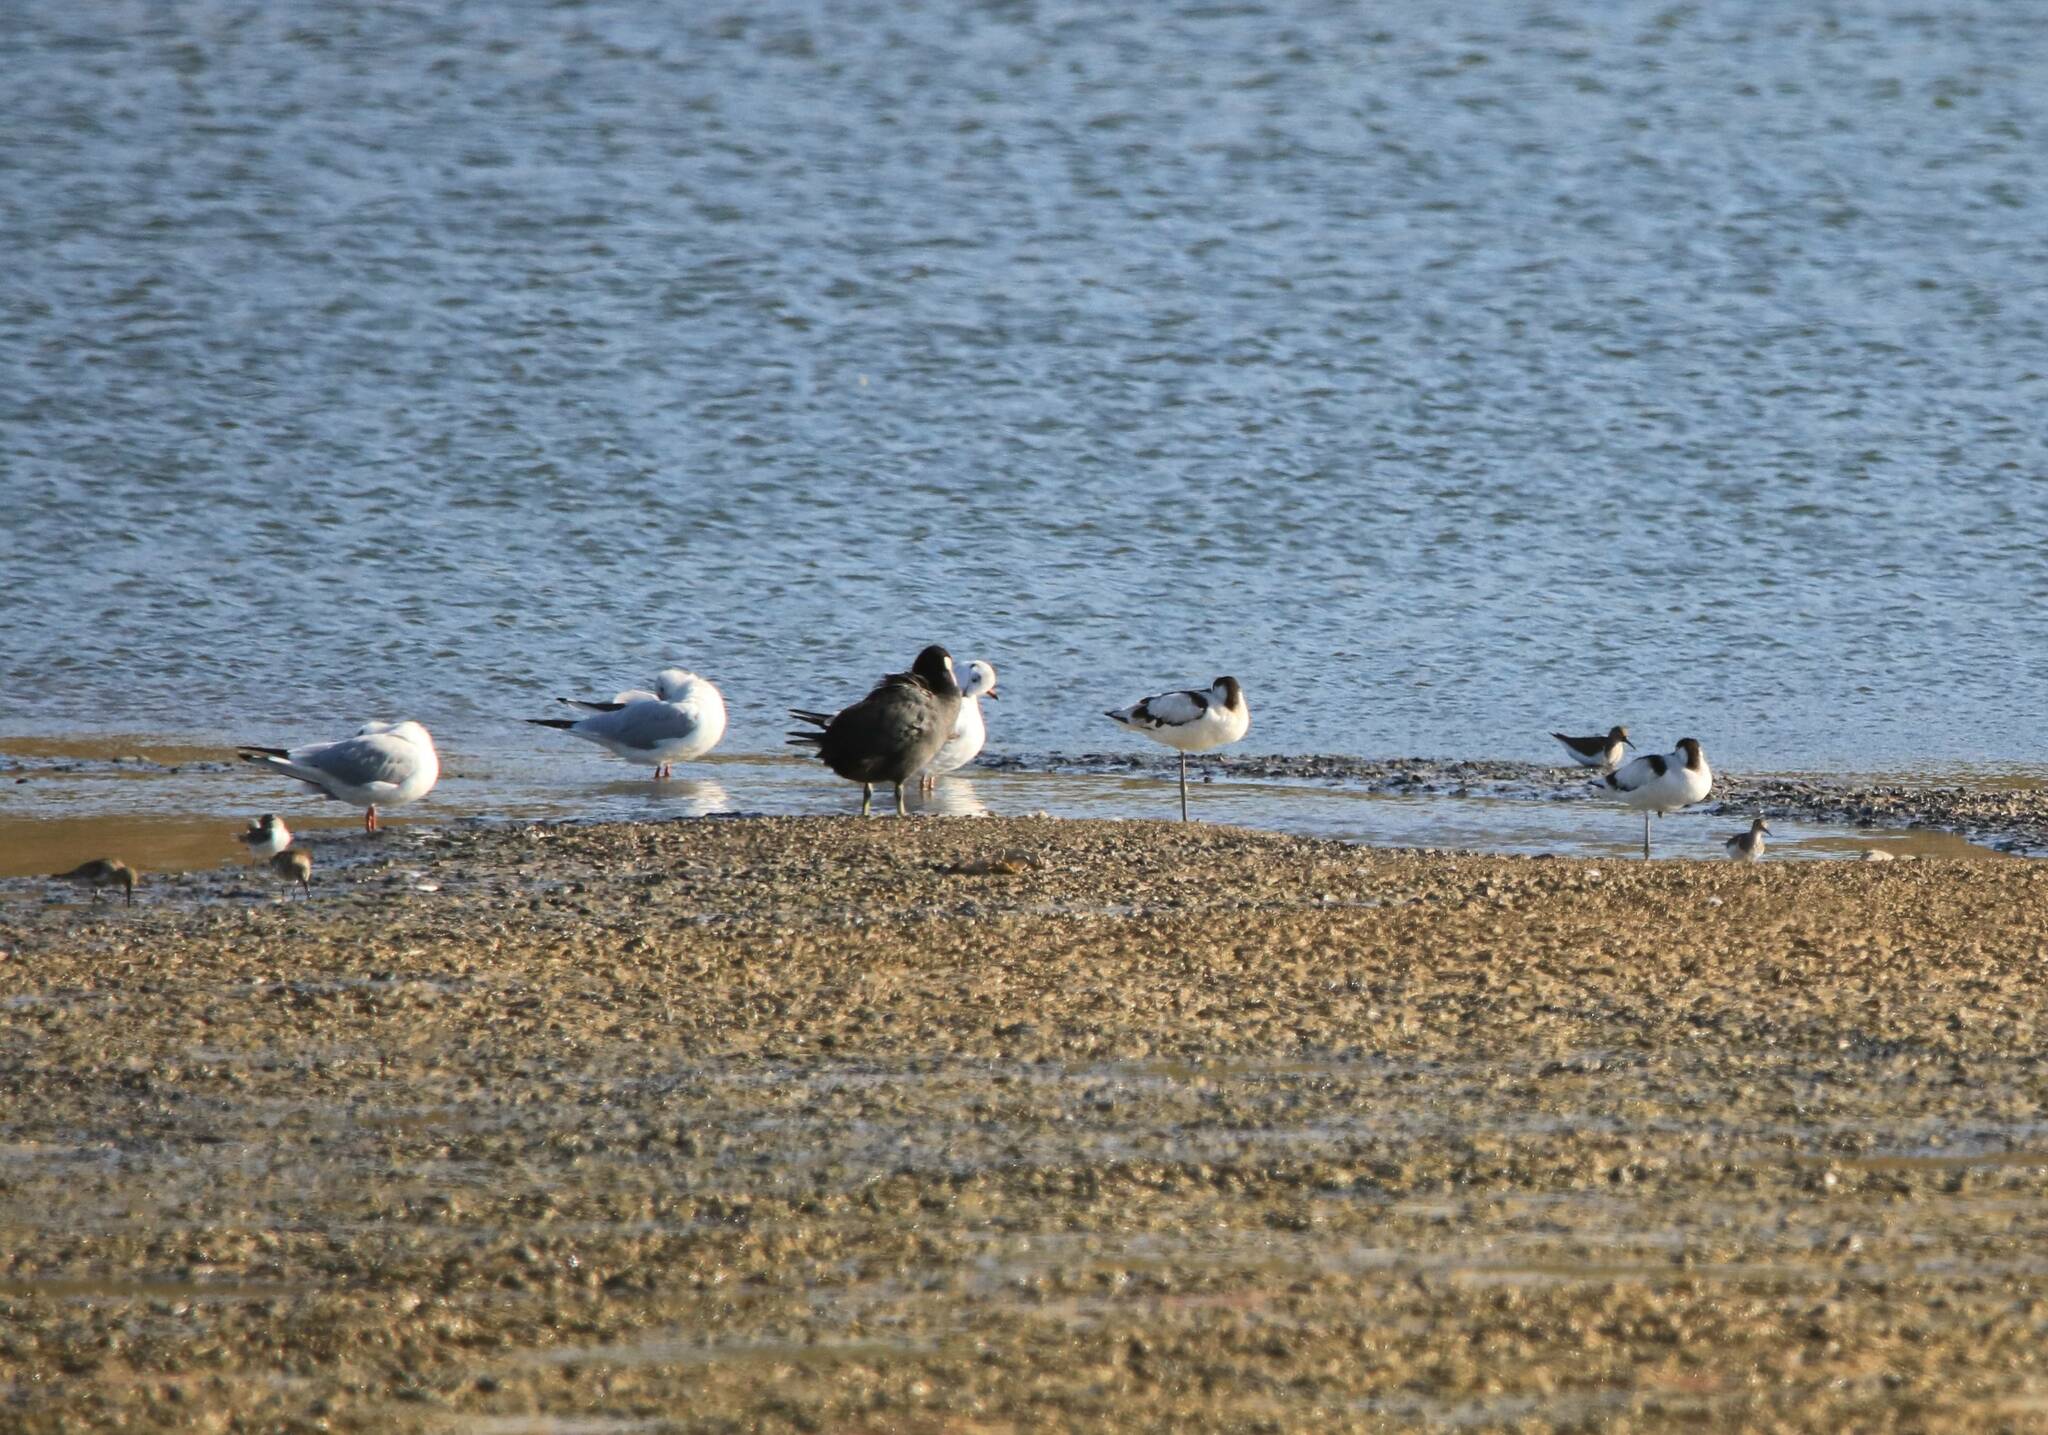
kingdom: Animalia
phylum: Chordata
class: Aves
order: Charadriiformes
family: Recurvirostridae
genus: Recurvirostra
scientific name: Recurvirostra avosetta
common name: Pied avocet
